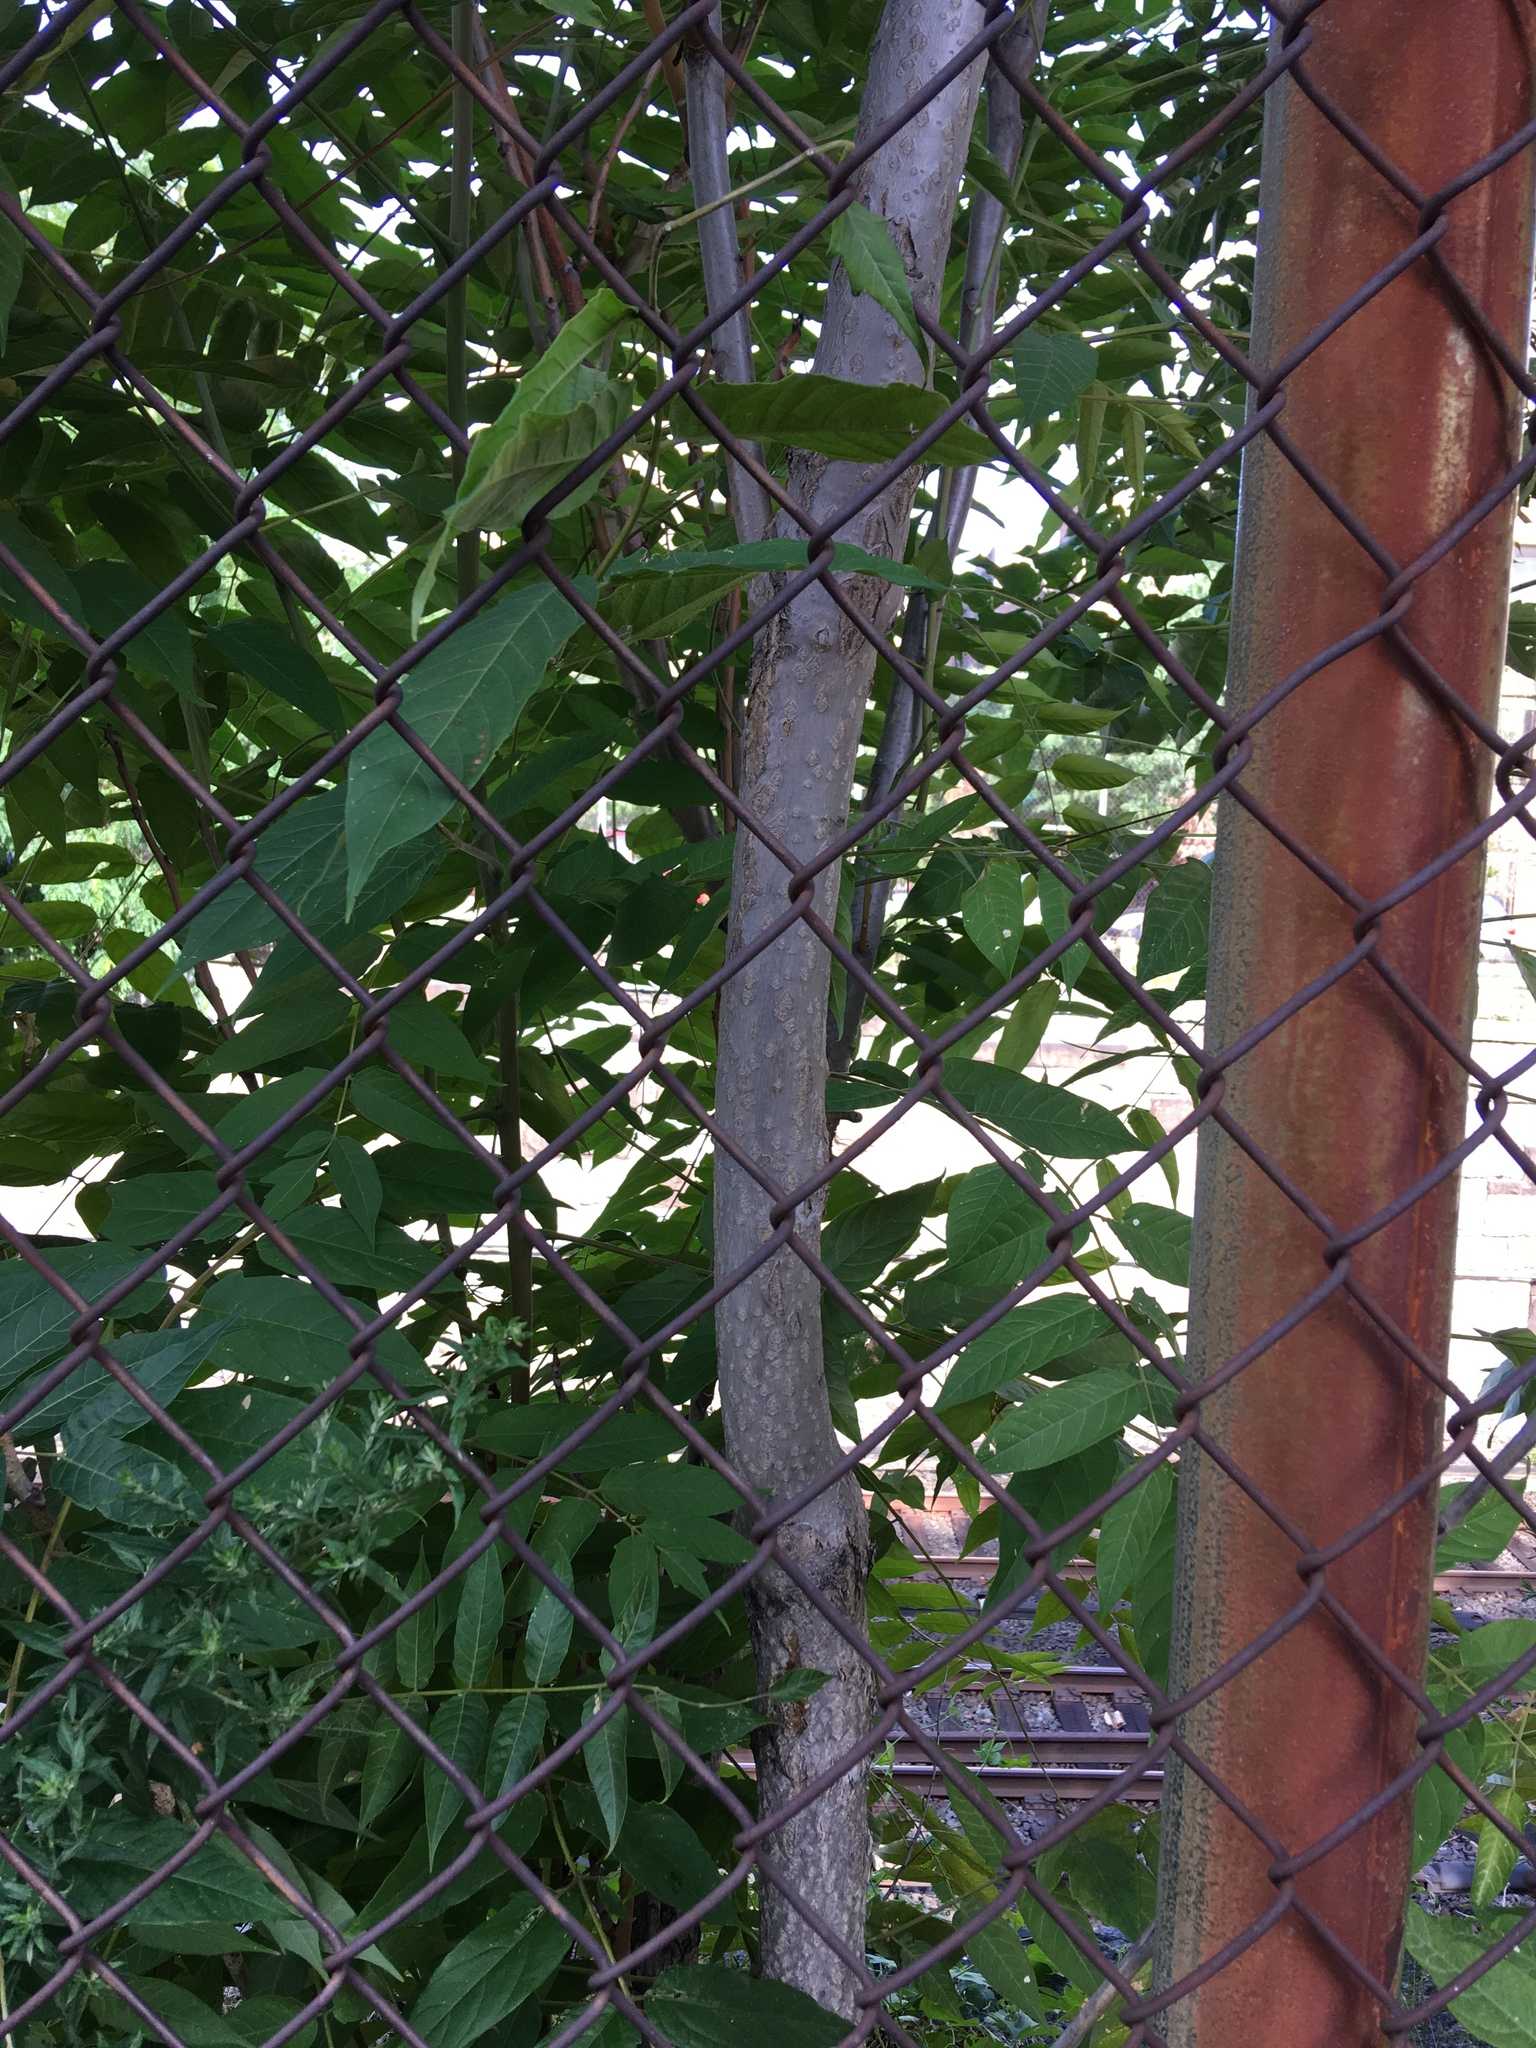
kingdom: Plantae
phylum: Tracheophyta
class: Magnoliopsida
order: Sapindales
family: Simaroubaceae
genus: Ailanthus
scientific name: Ailanthus altissima
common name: Tree-of-heaven
